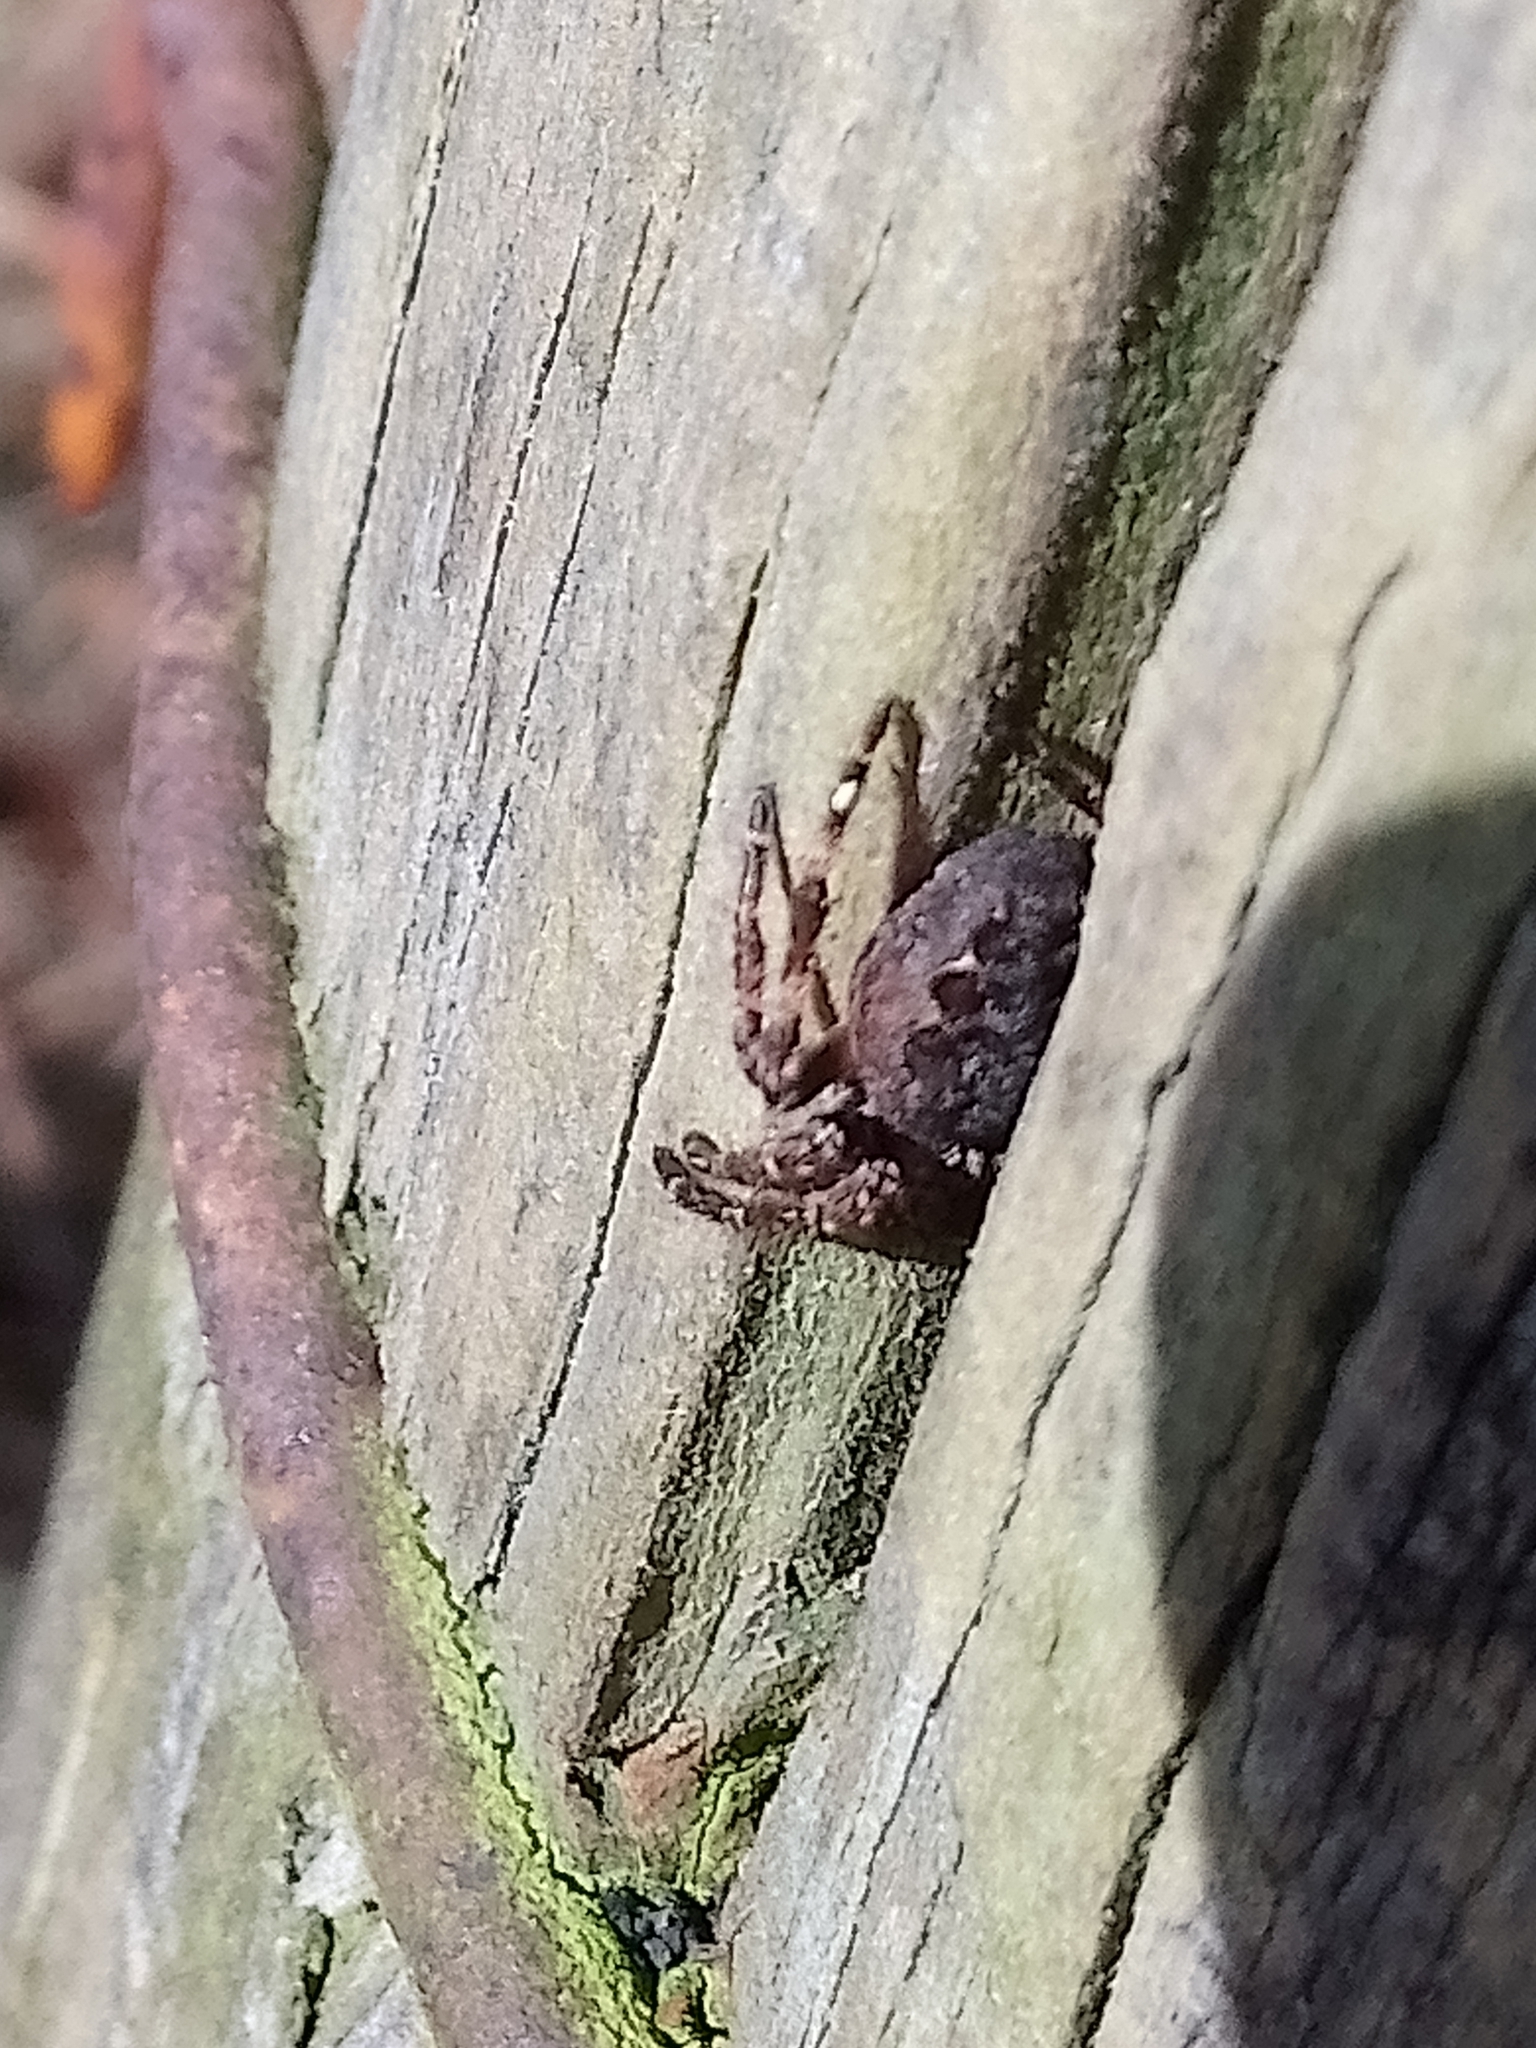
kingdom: Animalia
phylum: Arthropoda
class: Arachnida
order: Araneae
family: Araneidae
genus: Nuctenea
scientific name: Nuctenea umbratica
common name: Toad spider
